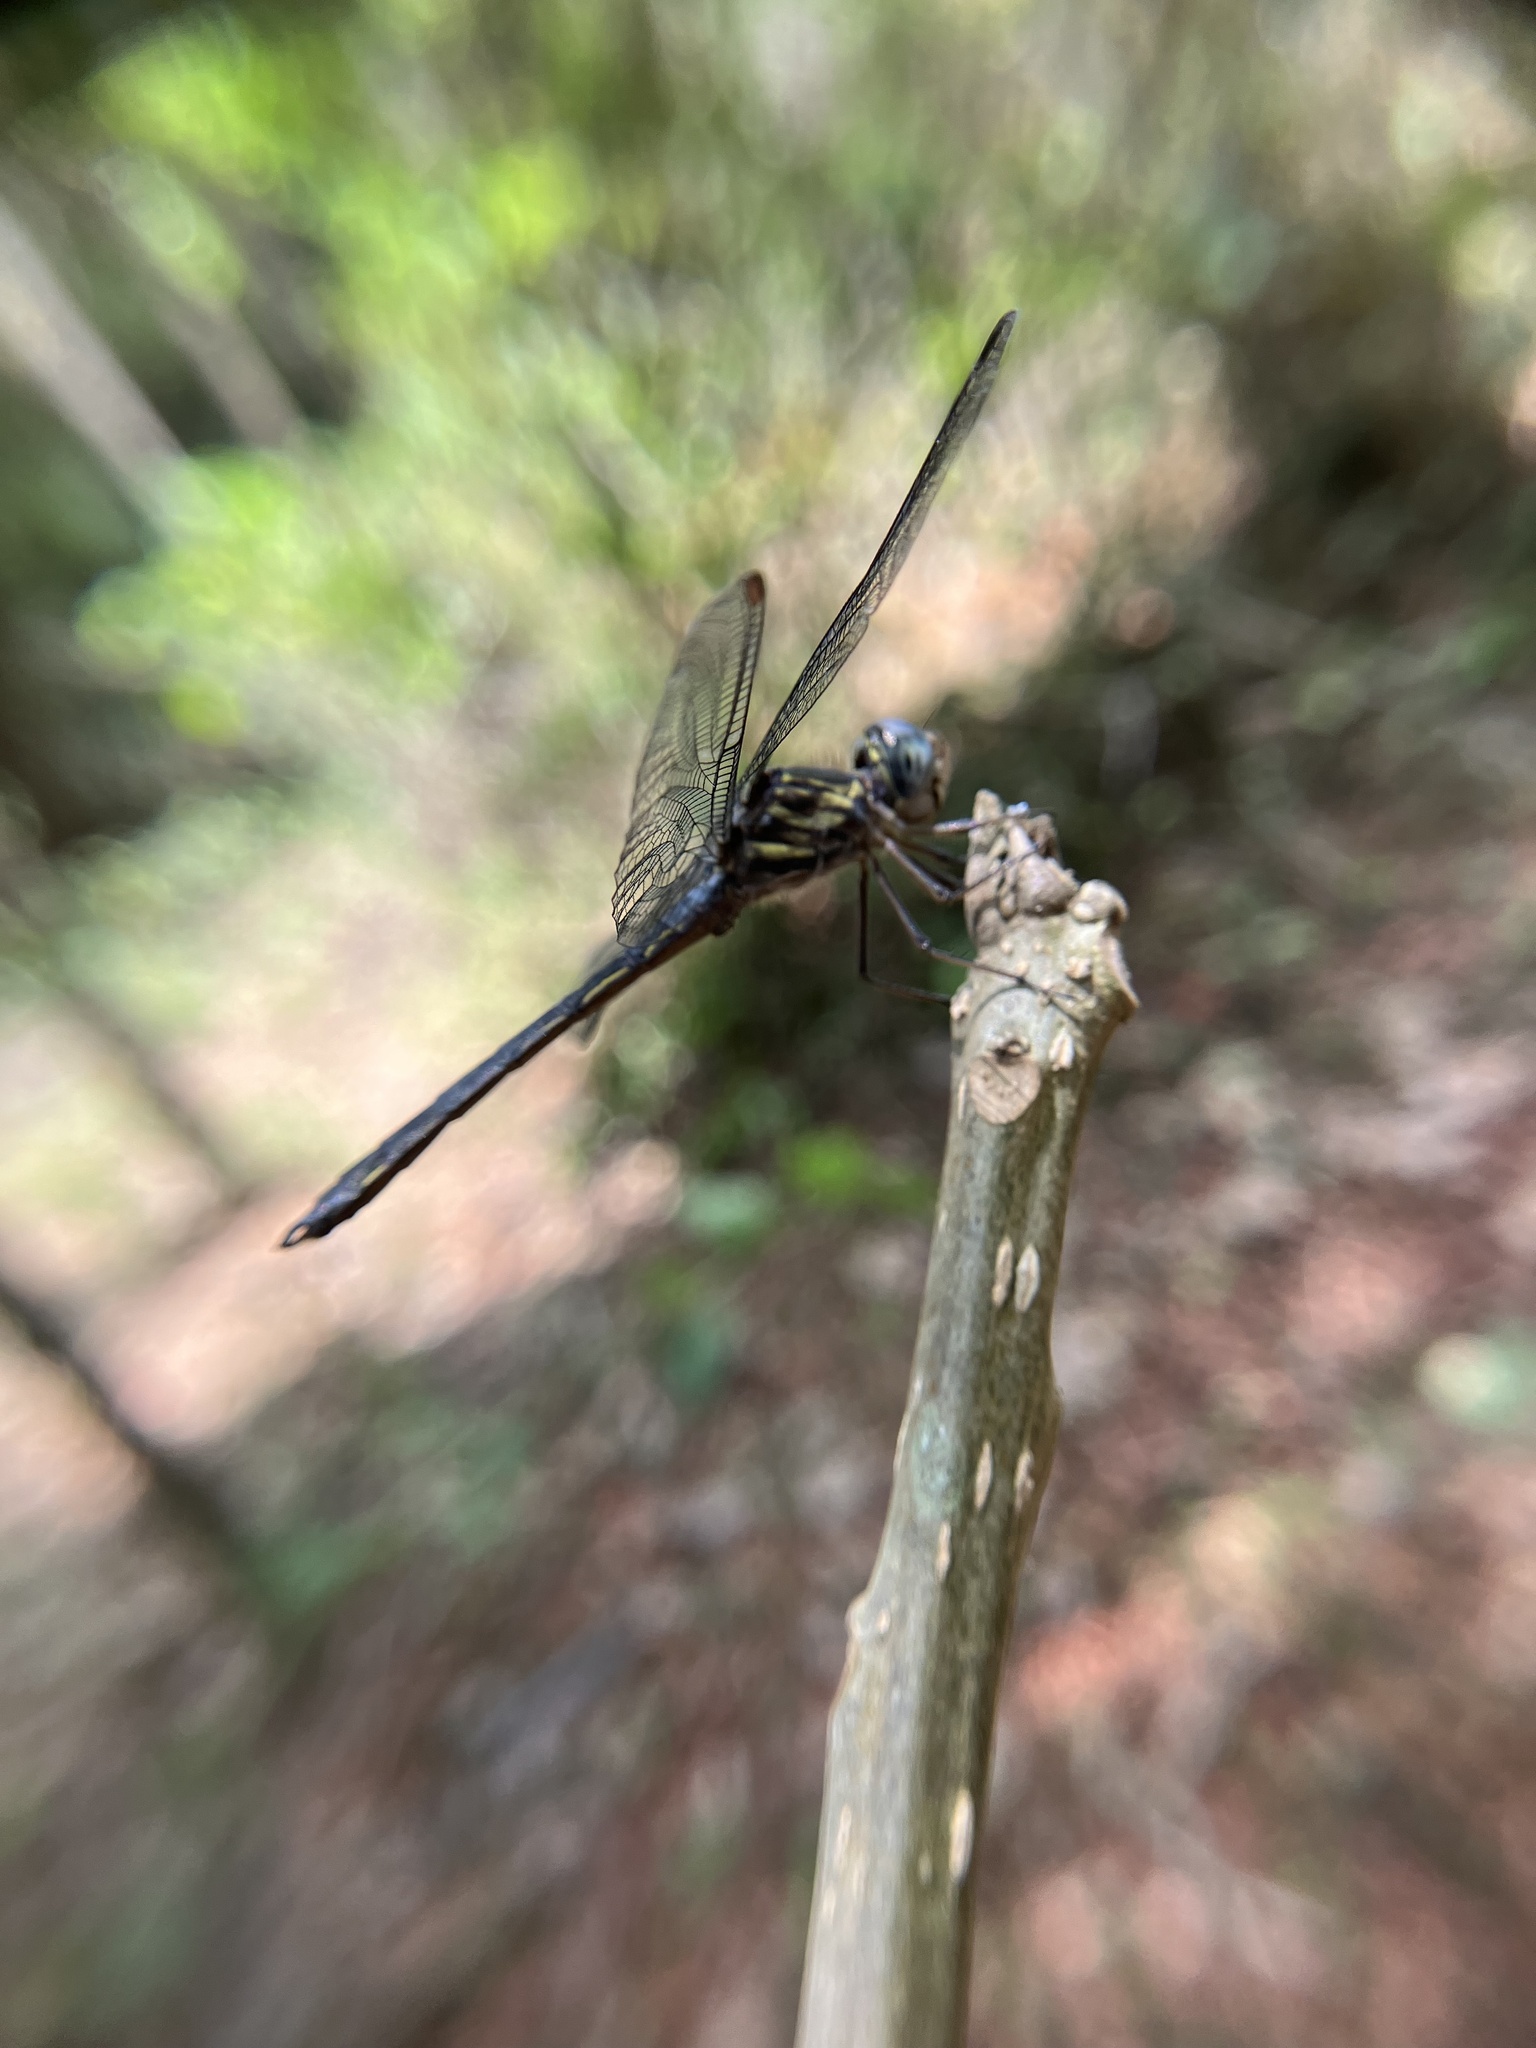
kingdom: Animalia
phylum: Arthropoda
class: Insecta
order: Odonata
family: Libellulidae
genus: Cratilla
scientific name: Cratilla lineata
